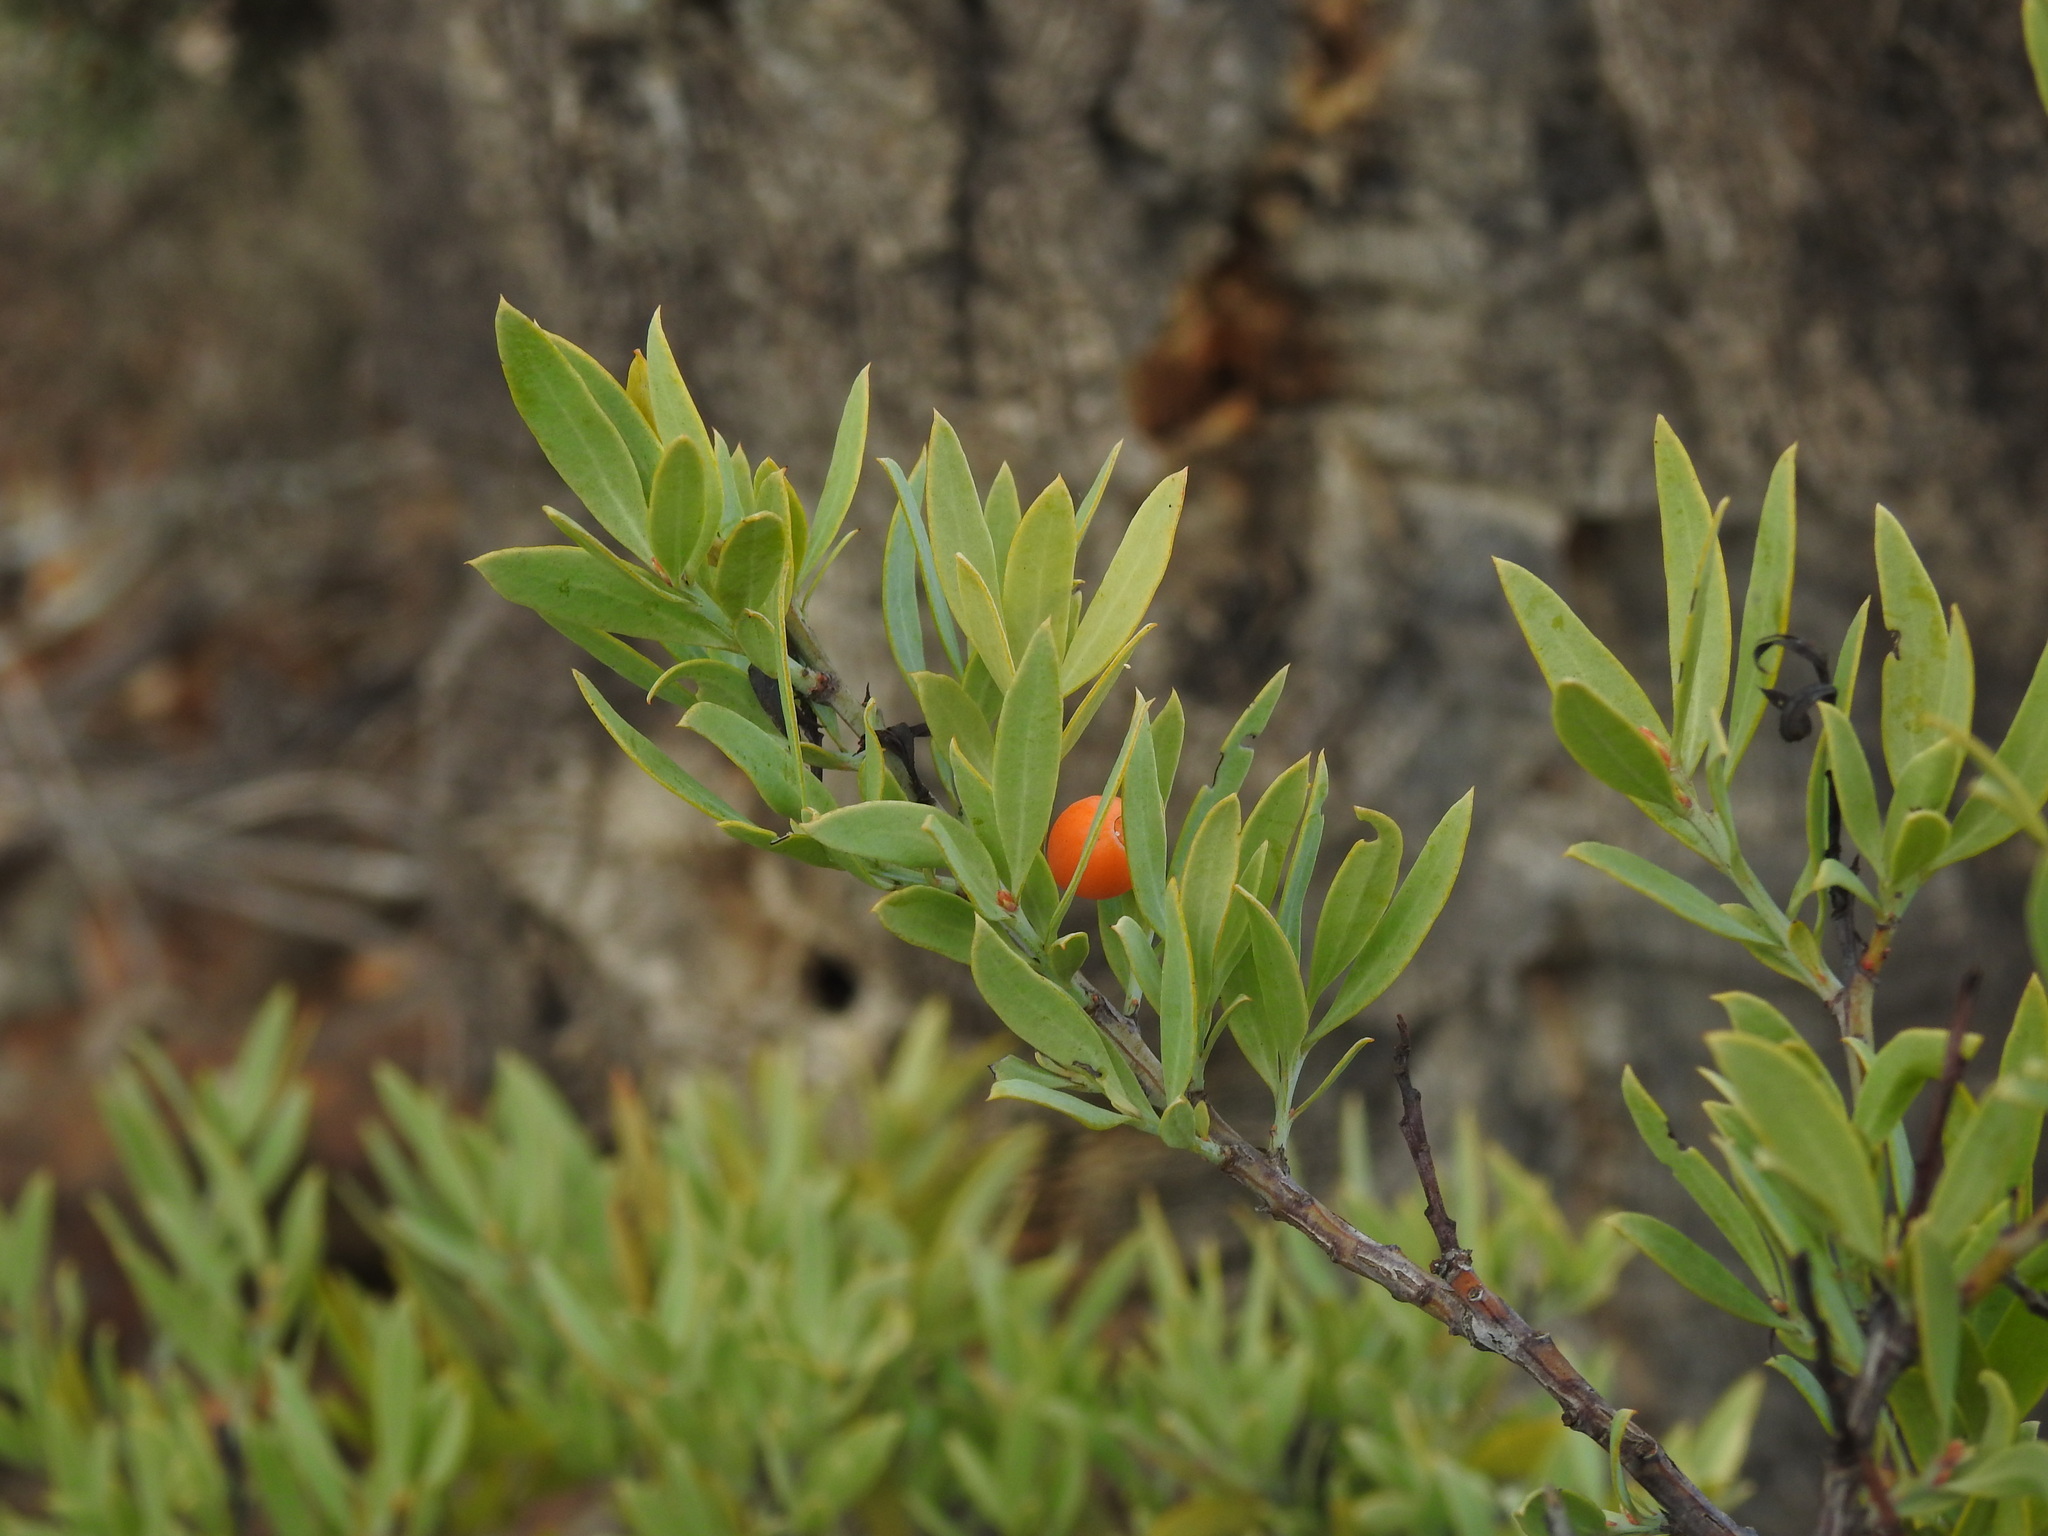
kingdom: Plantae
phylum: Tracheophyta
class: Magnoliopsida
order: Santalales
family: Santalaceae
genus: Osyris
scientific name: Osyris lanceolata
